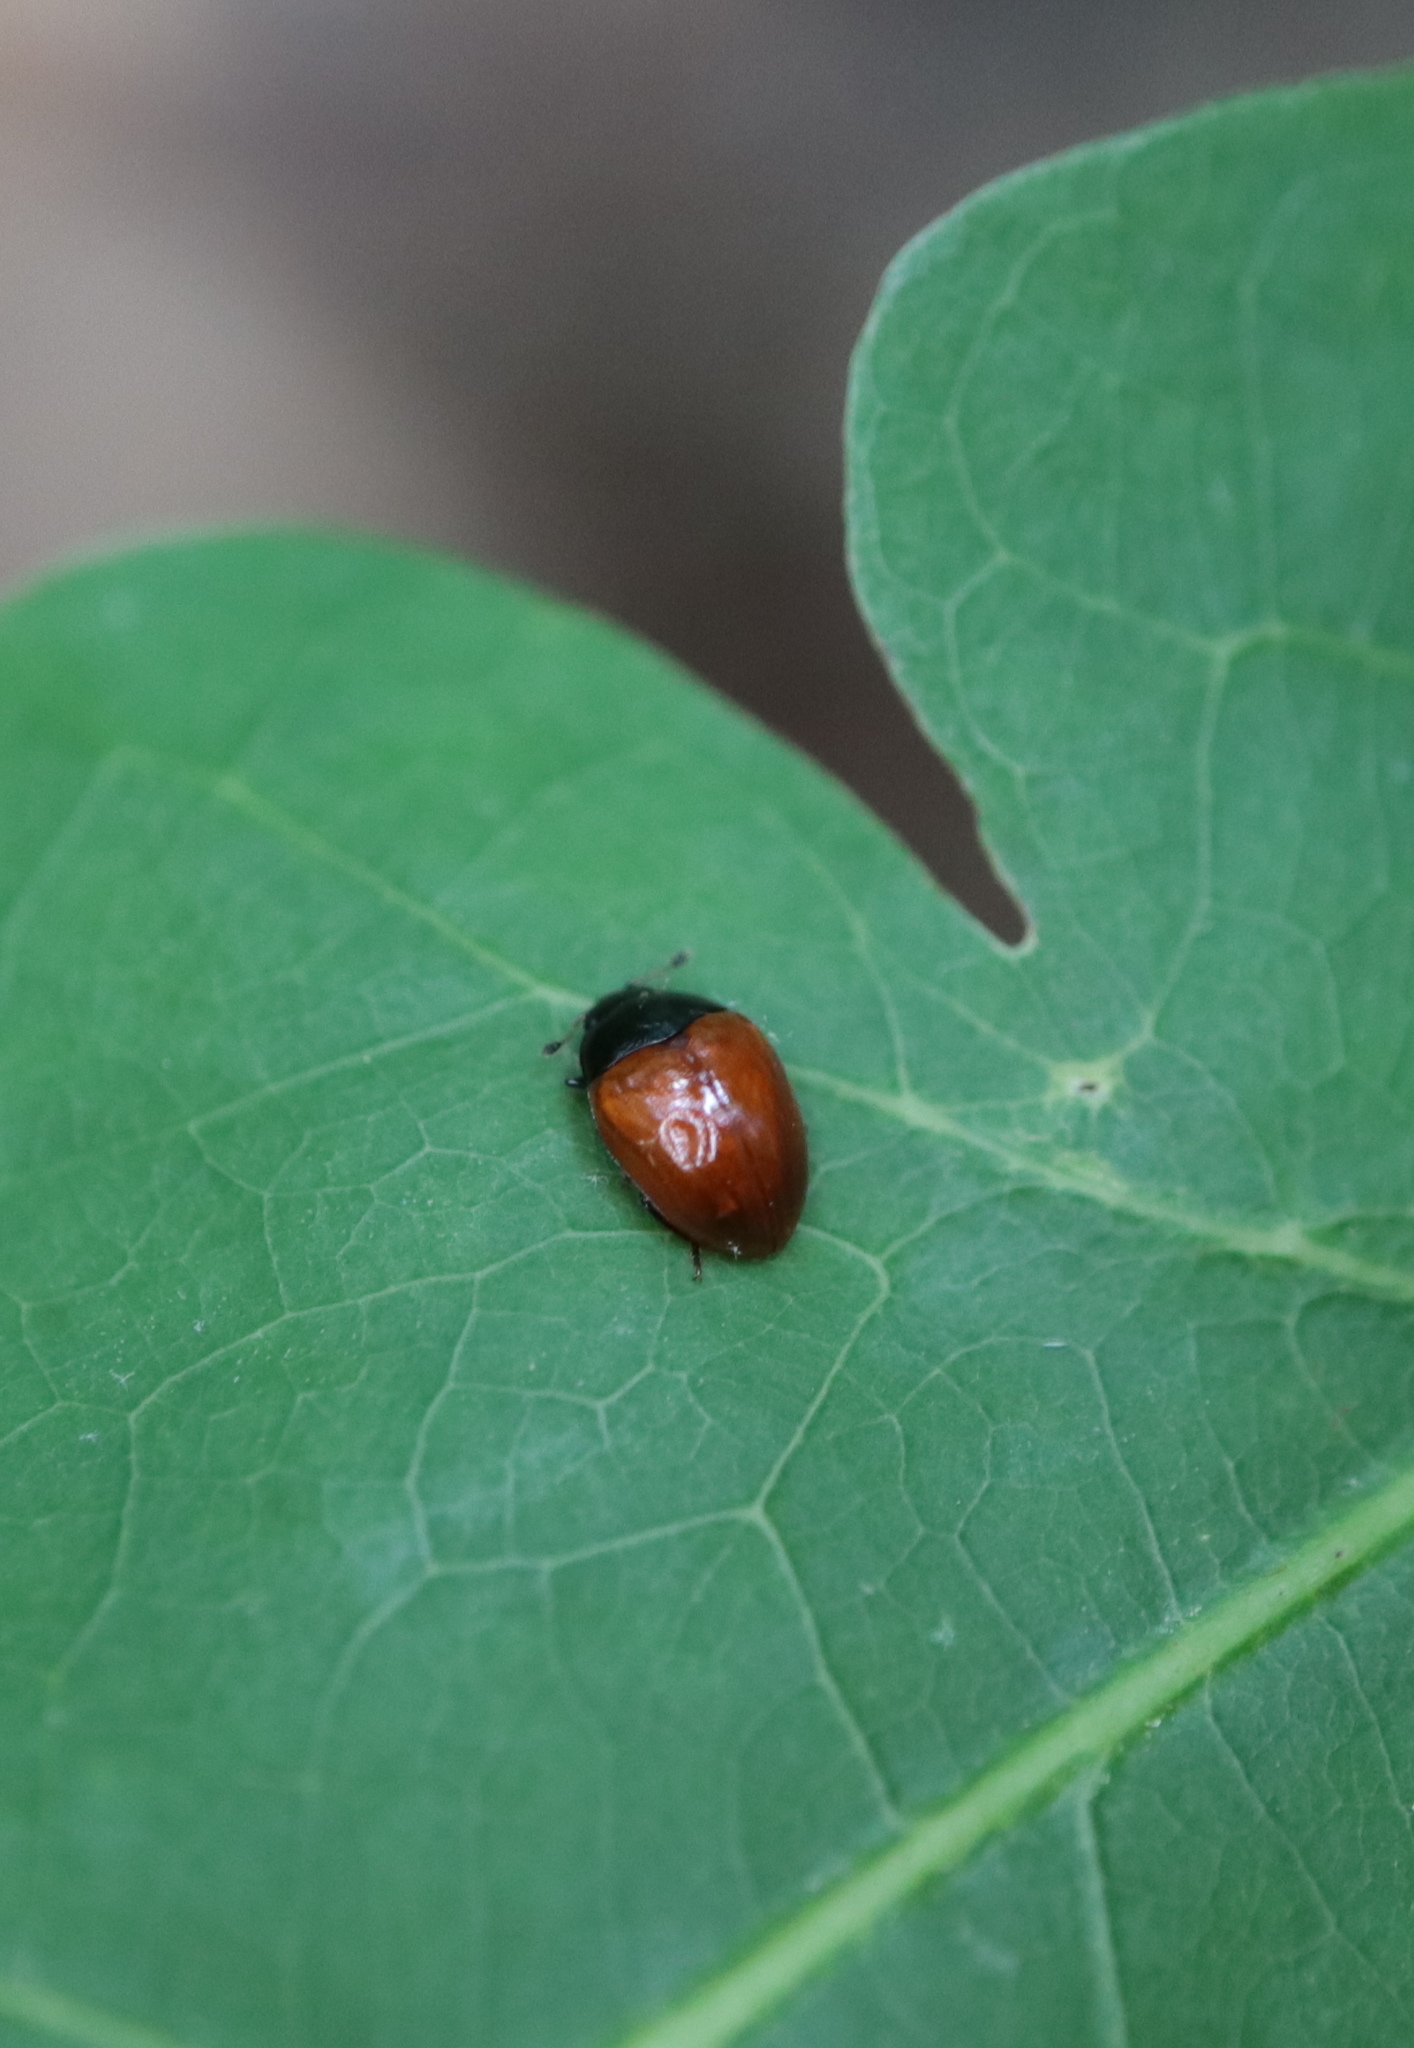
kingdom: Animalia
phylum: Arthropoda
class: Insecta
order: Coleoptera
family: Erotylidae
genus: Tritoma
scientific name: Tritoma sanguinipennis
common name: Red-winged tritoma
